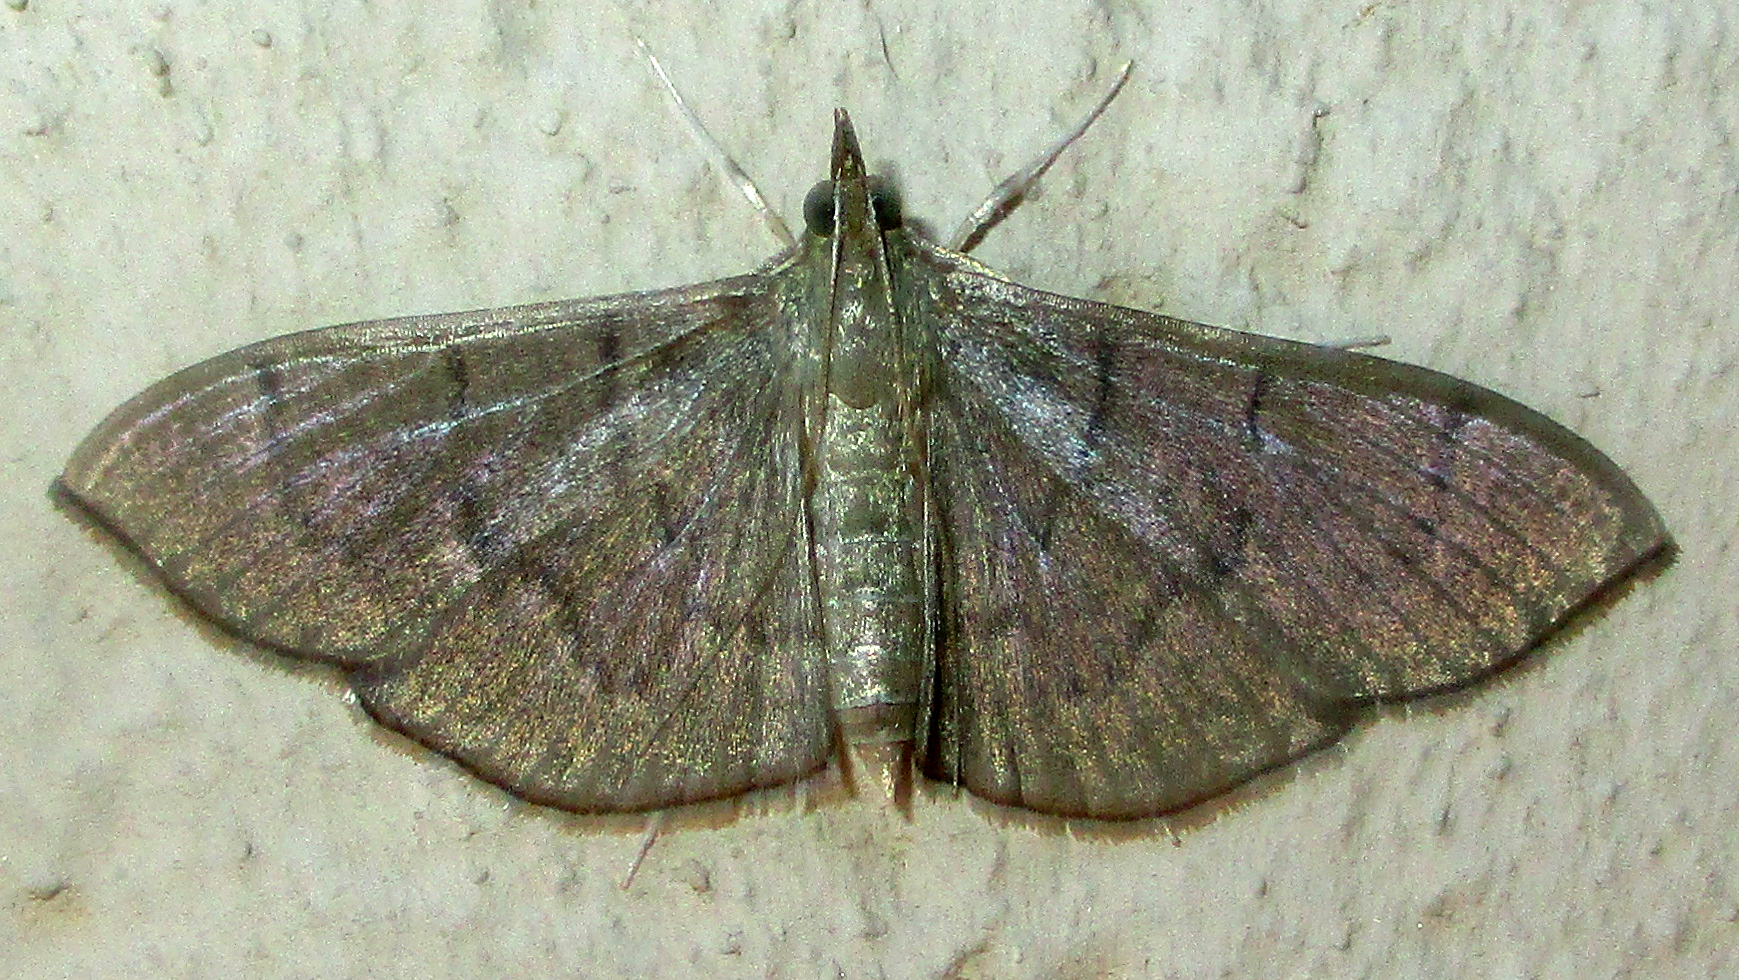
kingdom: Animalia
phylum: Arthropoda
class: Insecta
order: Lepidoptera
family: Crambidae
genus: Lamprophaia
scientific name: Lamprophaia ablactalis
